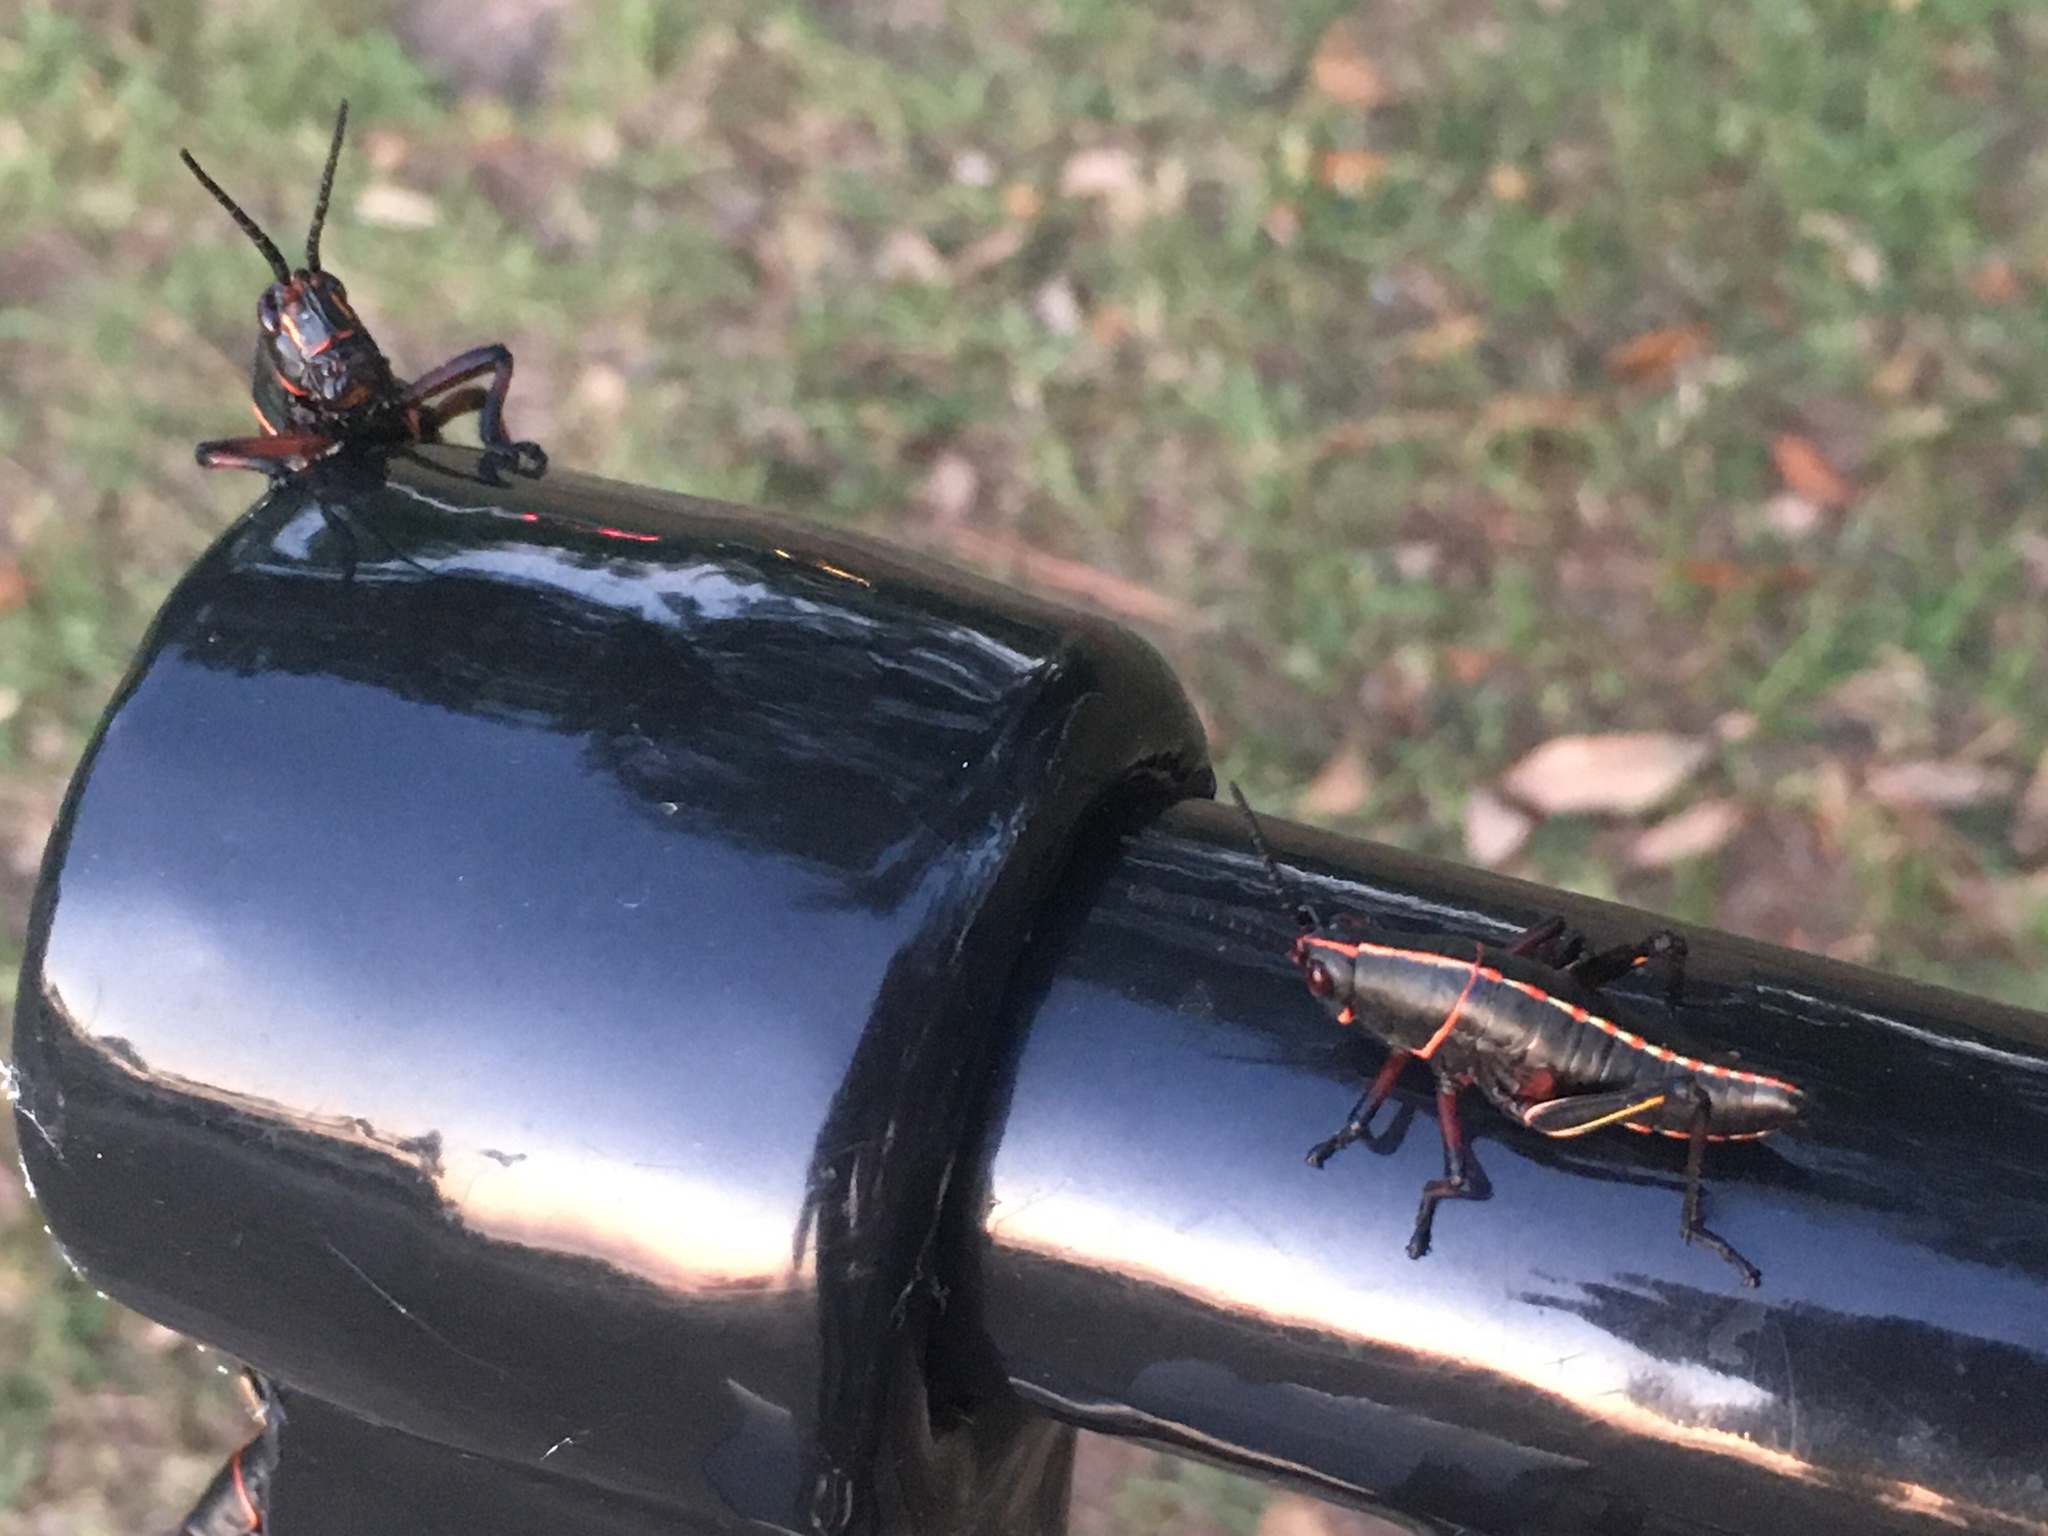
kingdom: Animalia
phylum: Arthropoda
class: Insecta
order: Orthoptera
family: Romaleidae
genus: Romalea
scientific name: Romalea microptera
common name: Eastern lubber grasshopper
